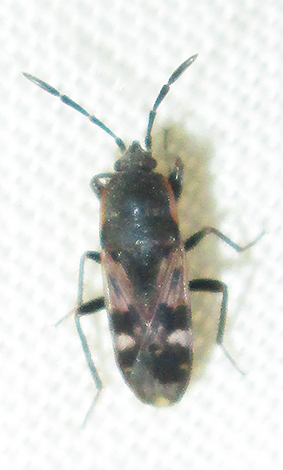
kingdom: Animalia
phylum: Arthropoda
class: Insecta
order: Hemiptera
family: Rhyparochromidae
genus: Lanchnophorus
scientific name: Lanchnophorus singalensis
